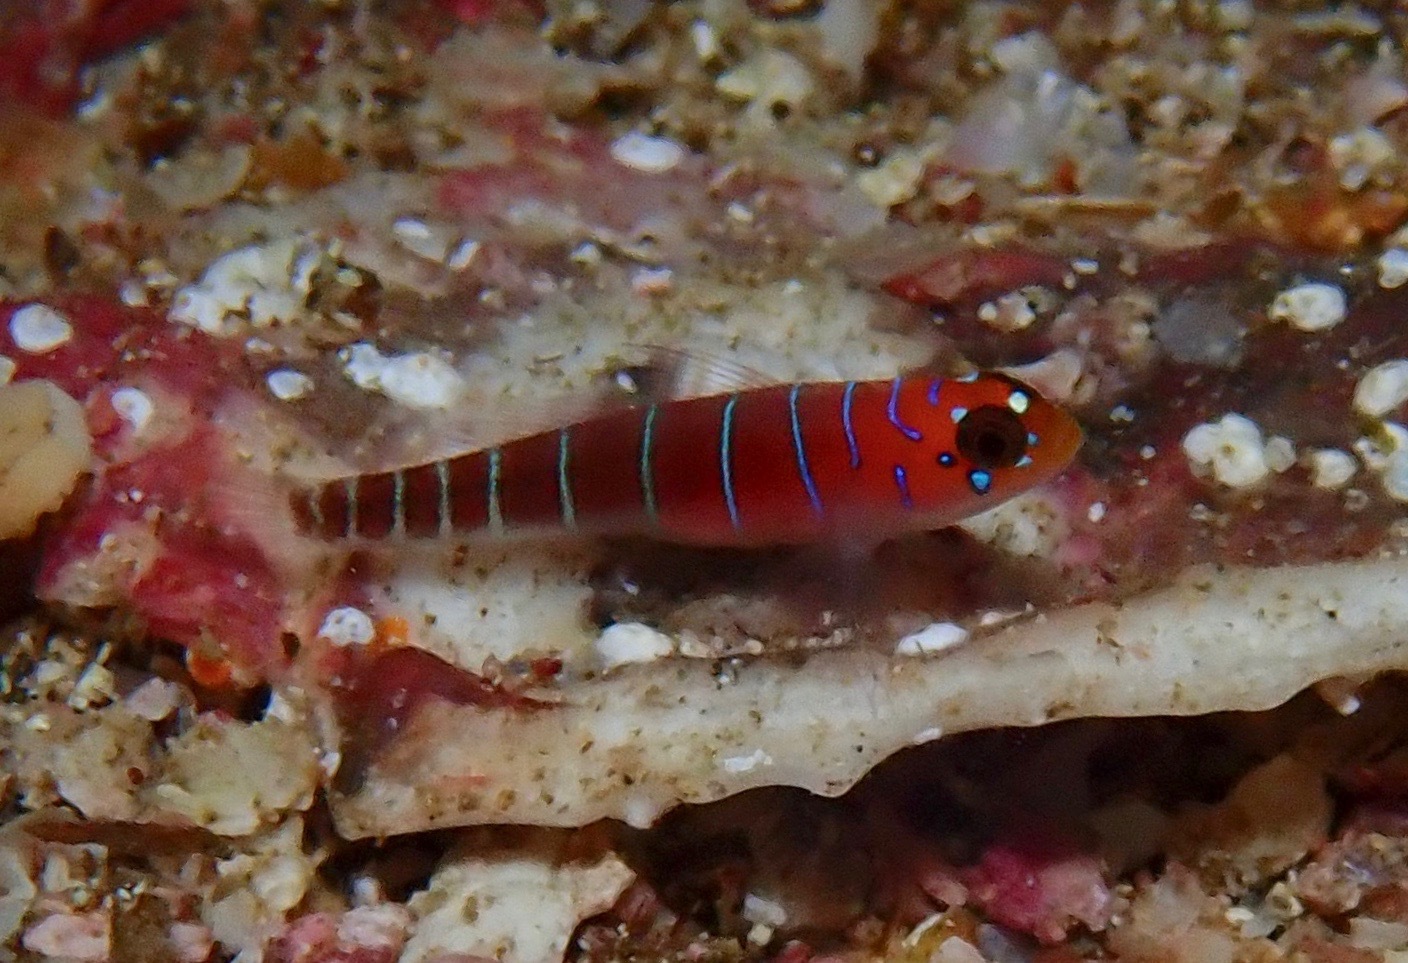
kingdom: Animalia
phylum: Chordata
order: Perciformes
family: Gobiidae
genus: Lythrypnus
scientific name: Lythrypnus gilberti
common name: Galapagos blue-banded goby
